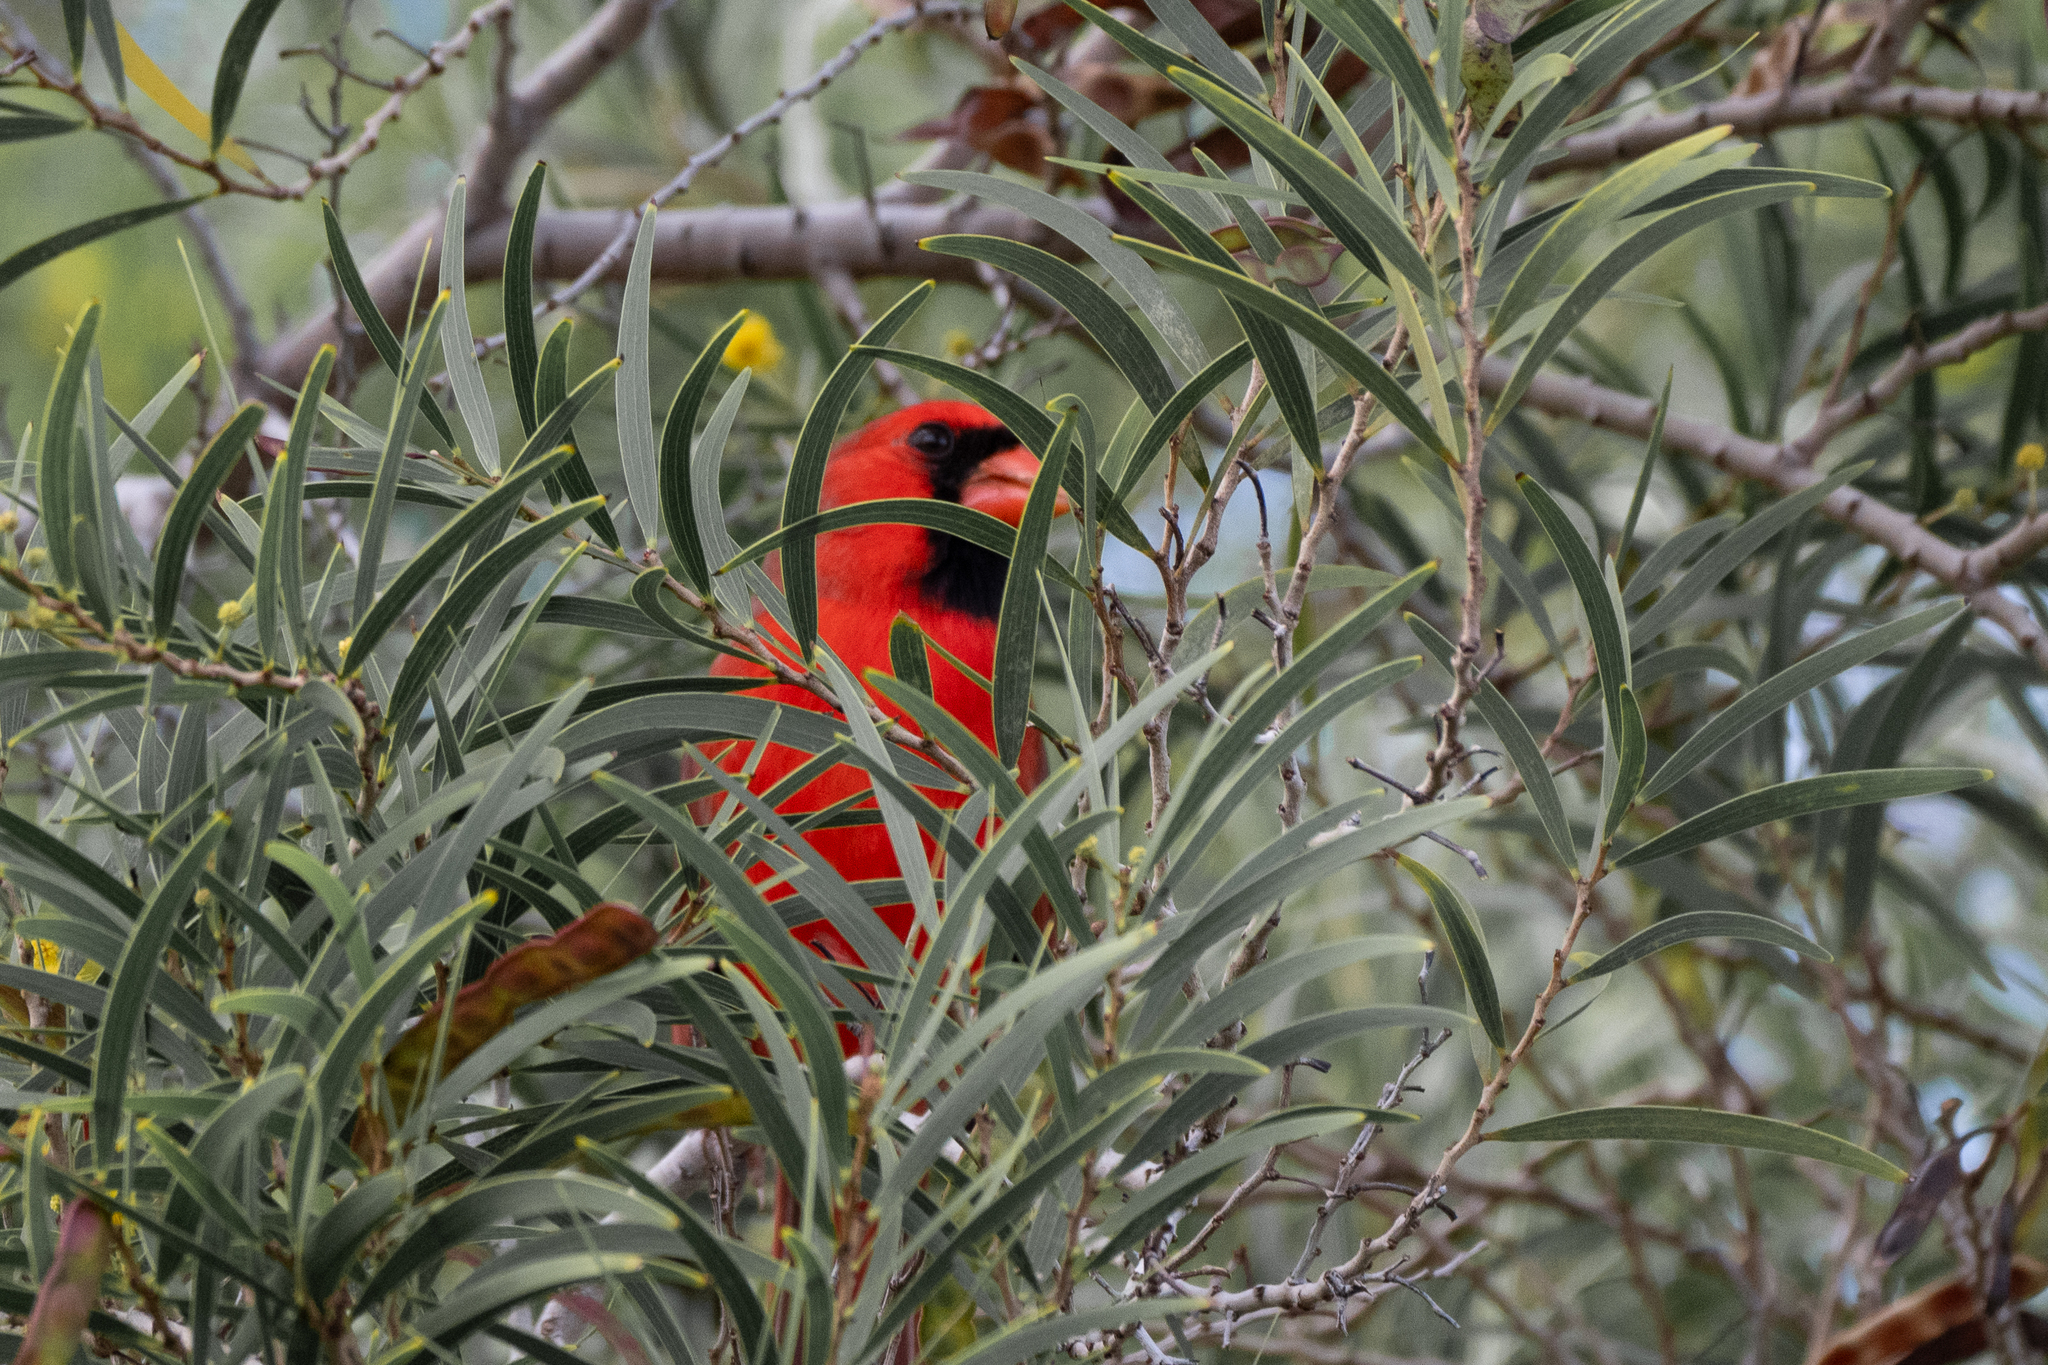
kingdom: Animalia
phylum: Chordata
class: Aves
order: Passeriformes
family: Cardinalidae
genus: Cardinalis
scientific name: Cardinalis cardinalis
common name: Northern cardinal
